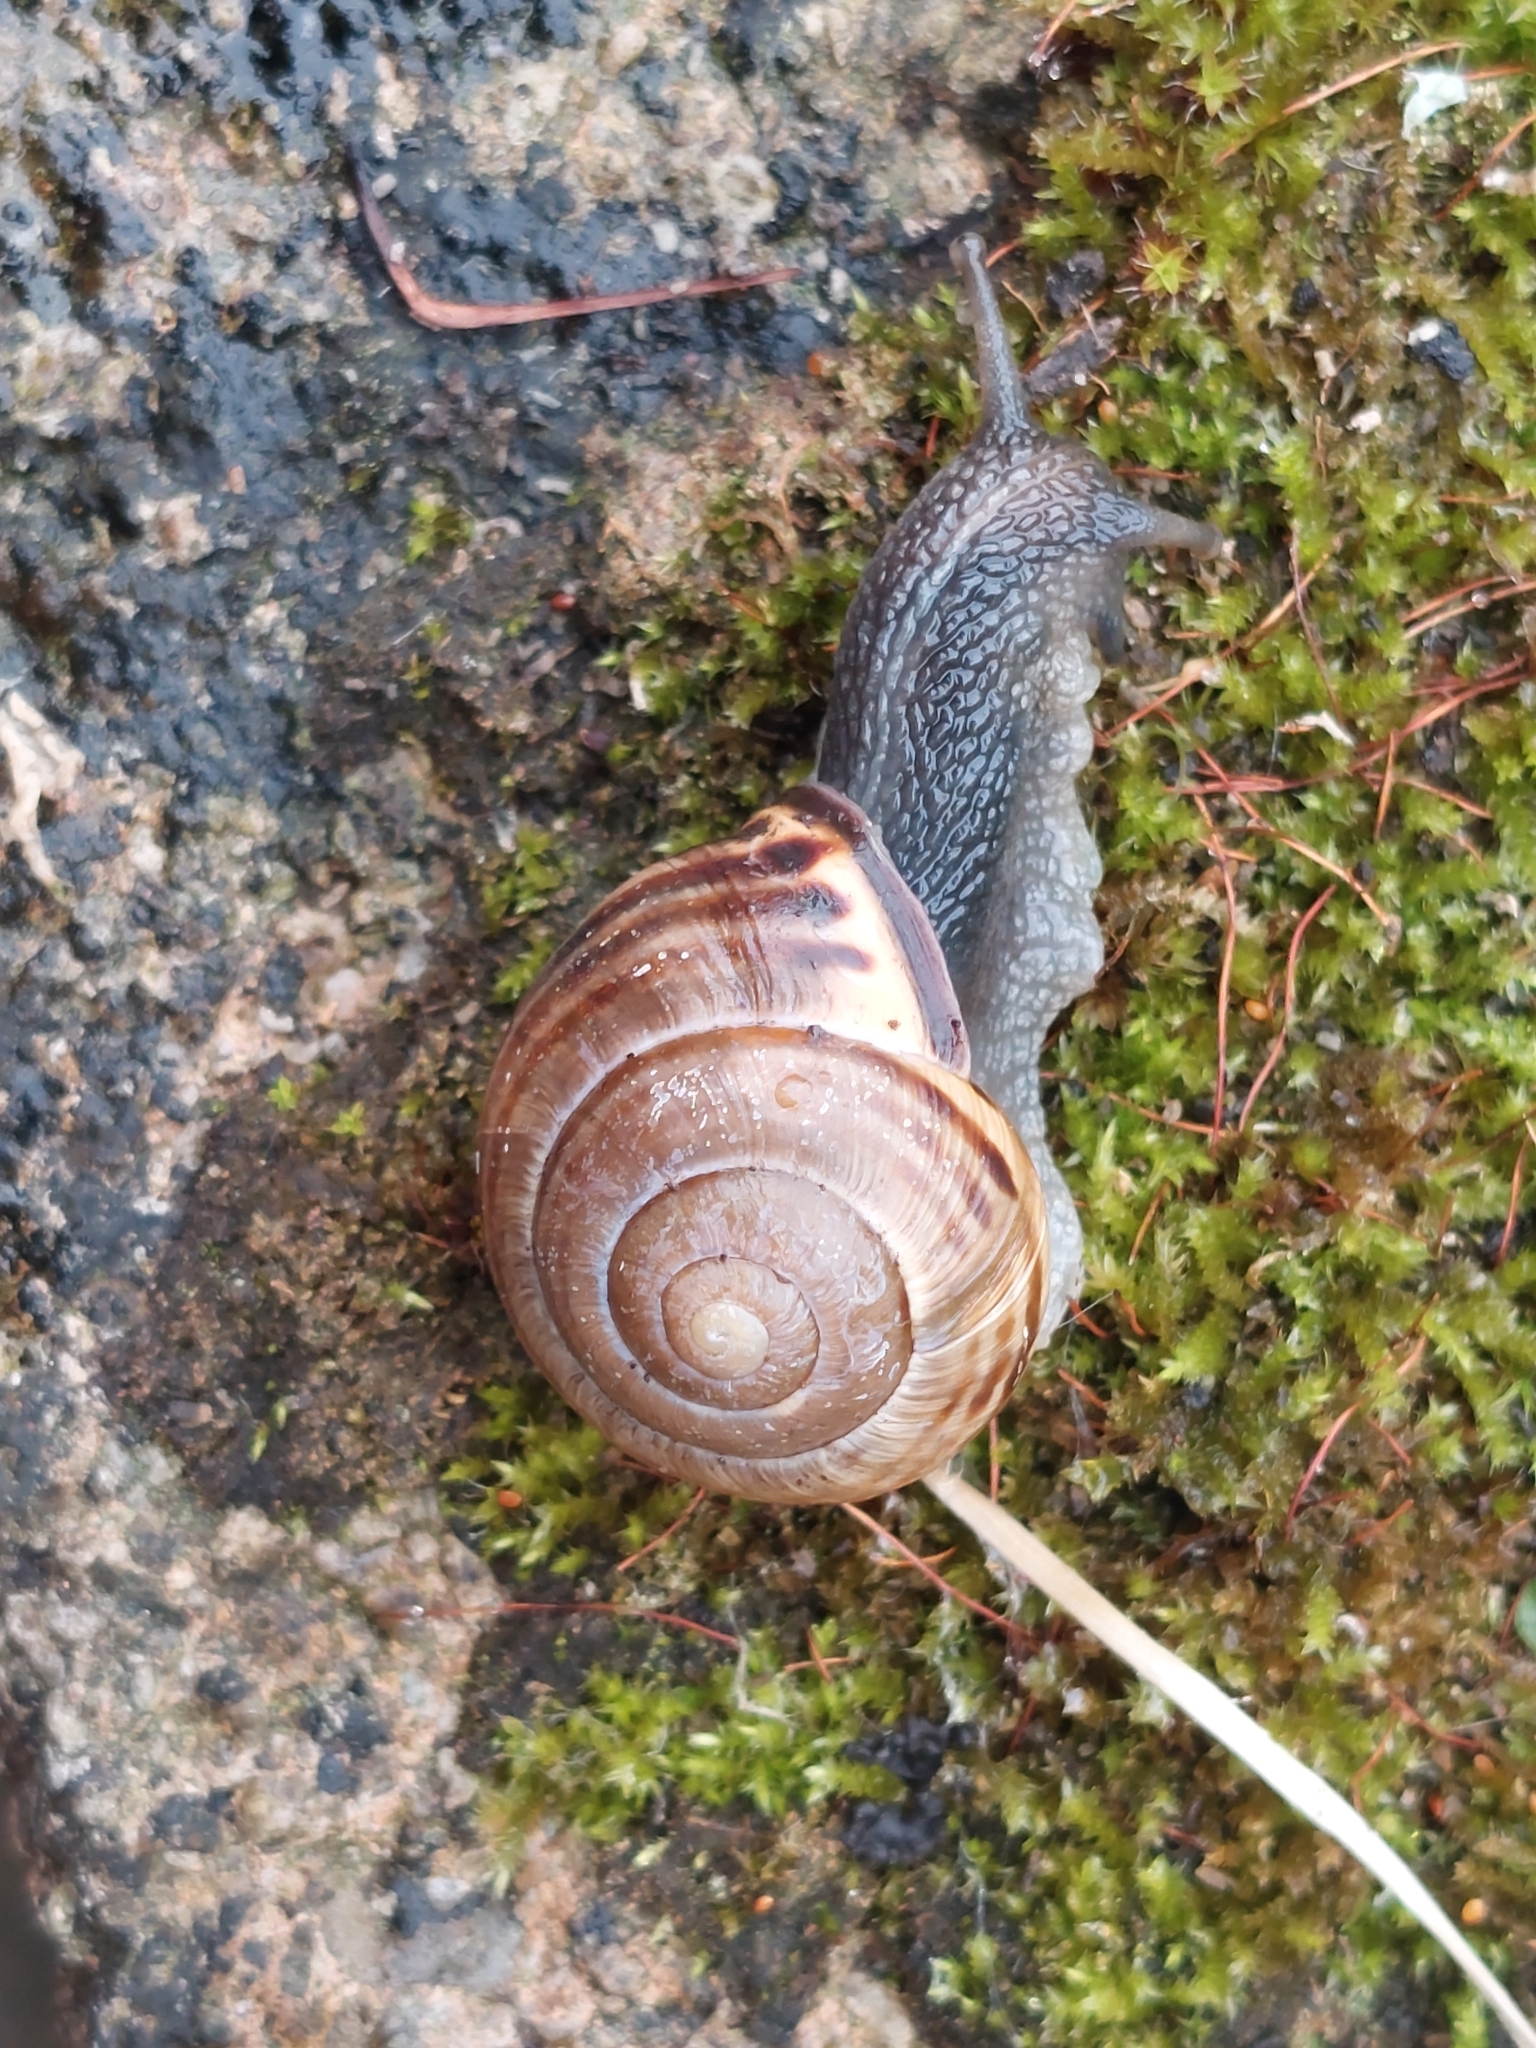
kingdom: Animalia
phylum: Mollusca
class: Gastropoda
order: Stylommatophora
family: Helicidae
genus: Cepaea
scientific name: Cepaea nemoralis
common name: Grovesnail
